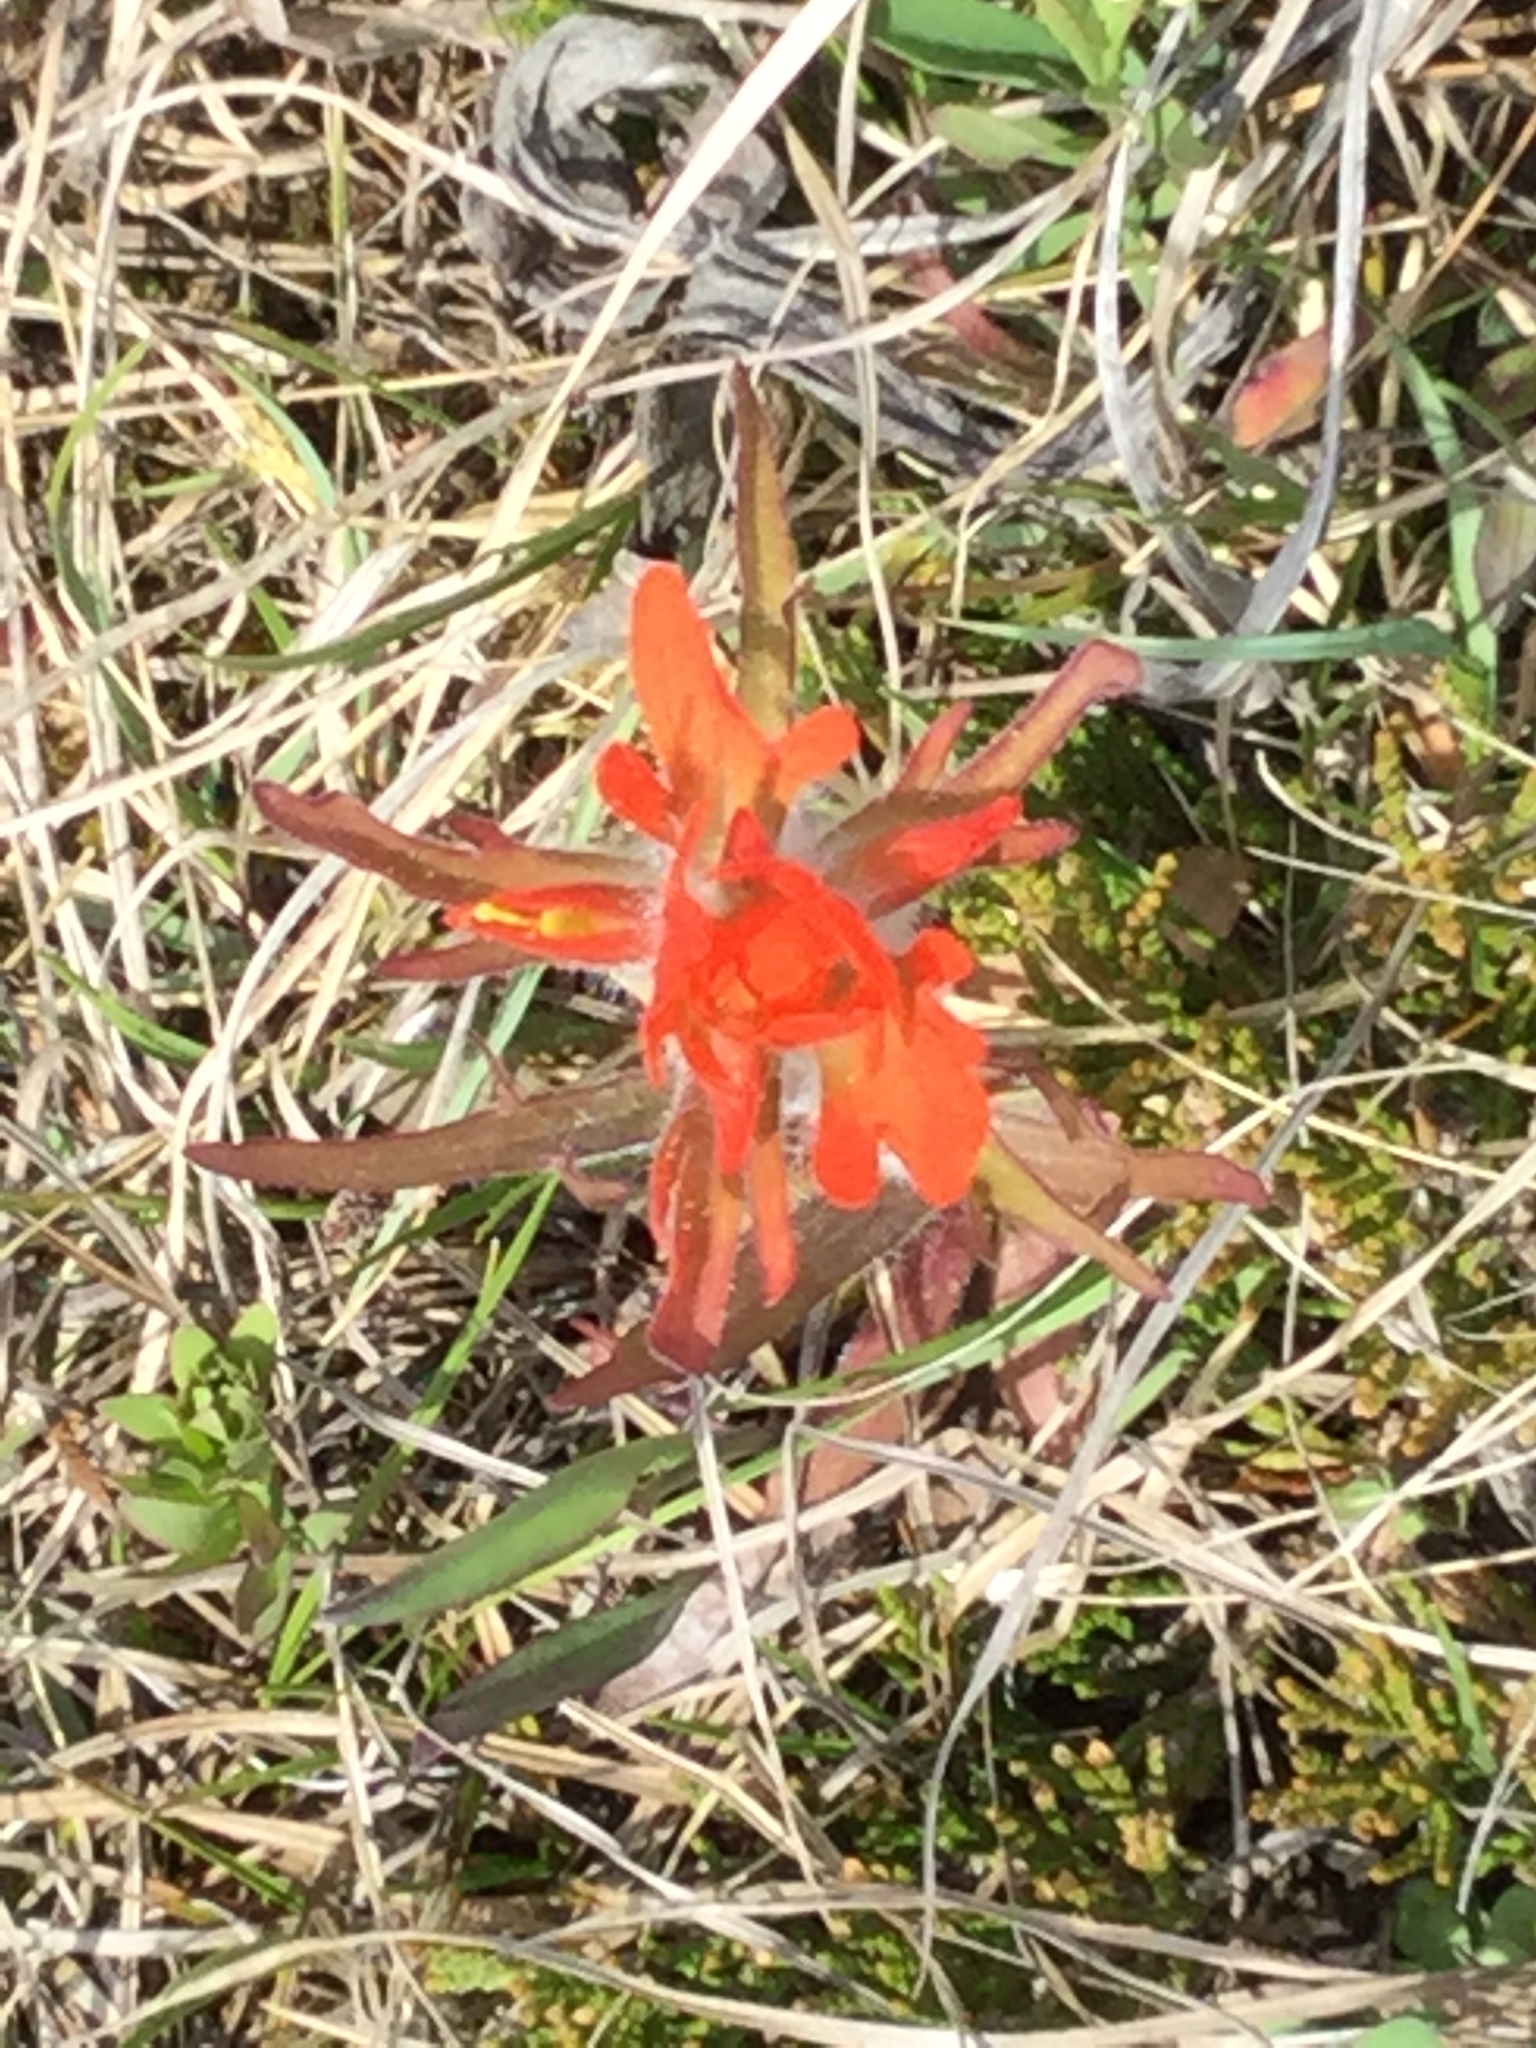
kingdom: Plantae
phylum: Tracheophyta
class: Magnoliopsida
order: Lamiales
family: Orobanchaceae
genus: Castilleja
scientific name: Castilleja coccinea
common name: Scarlet paintbrush
